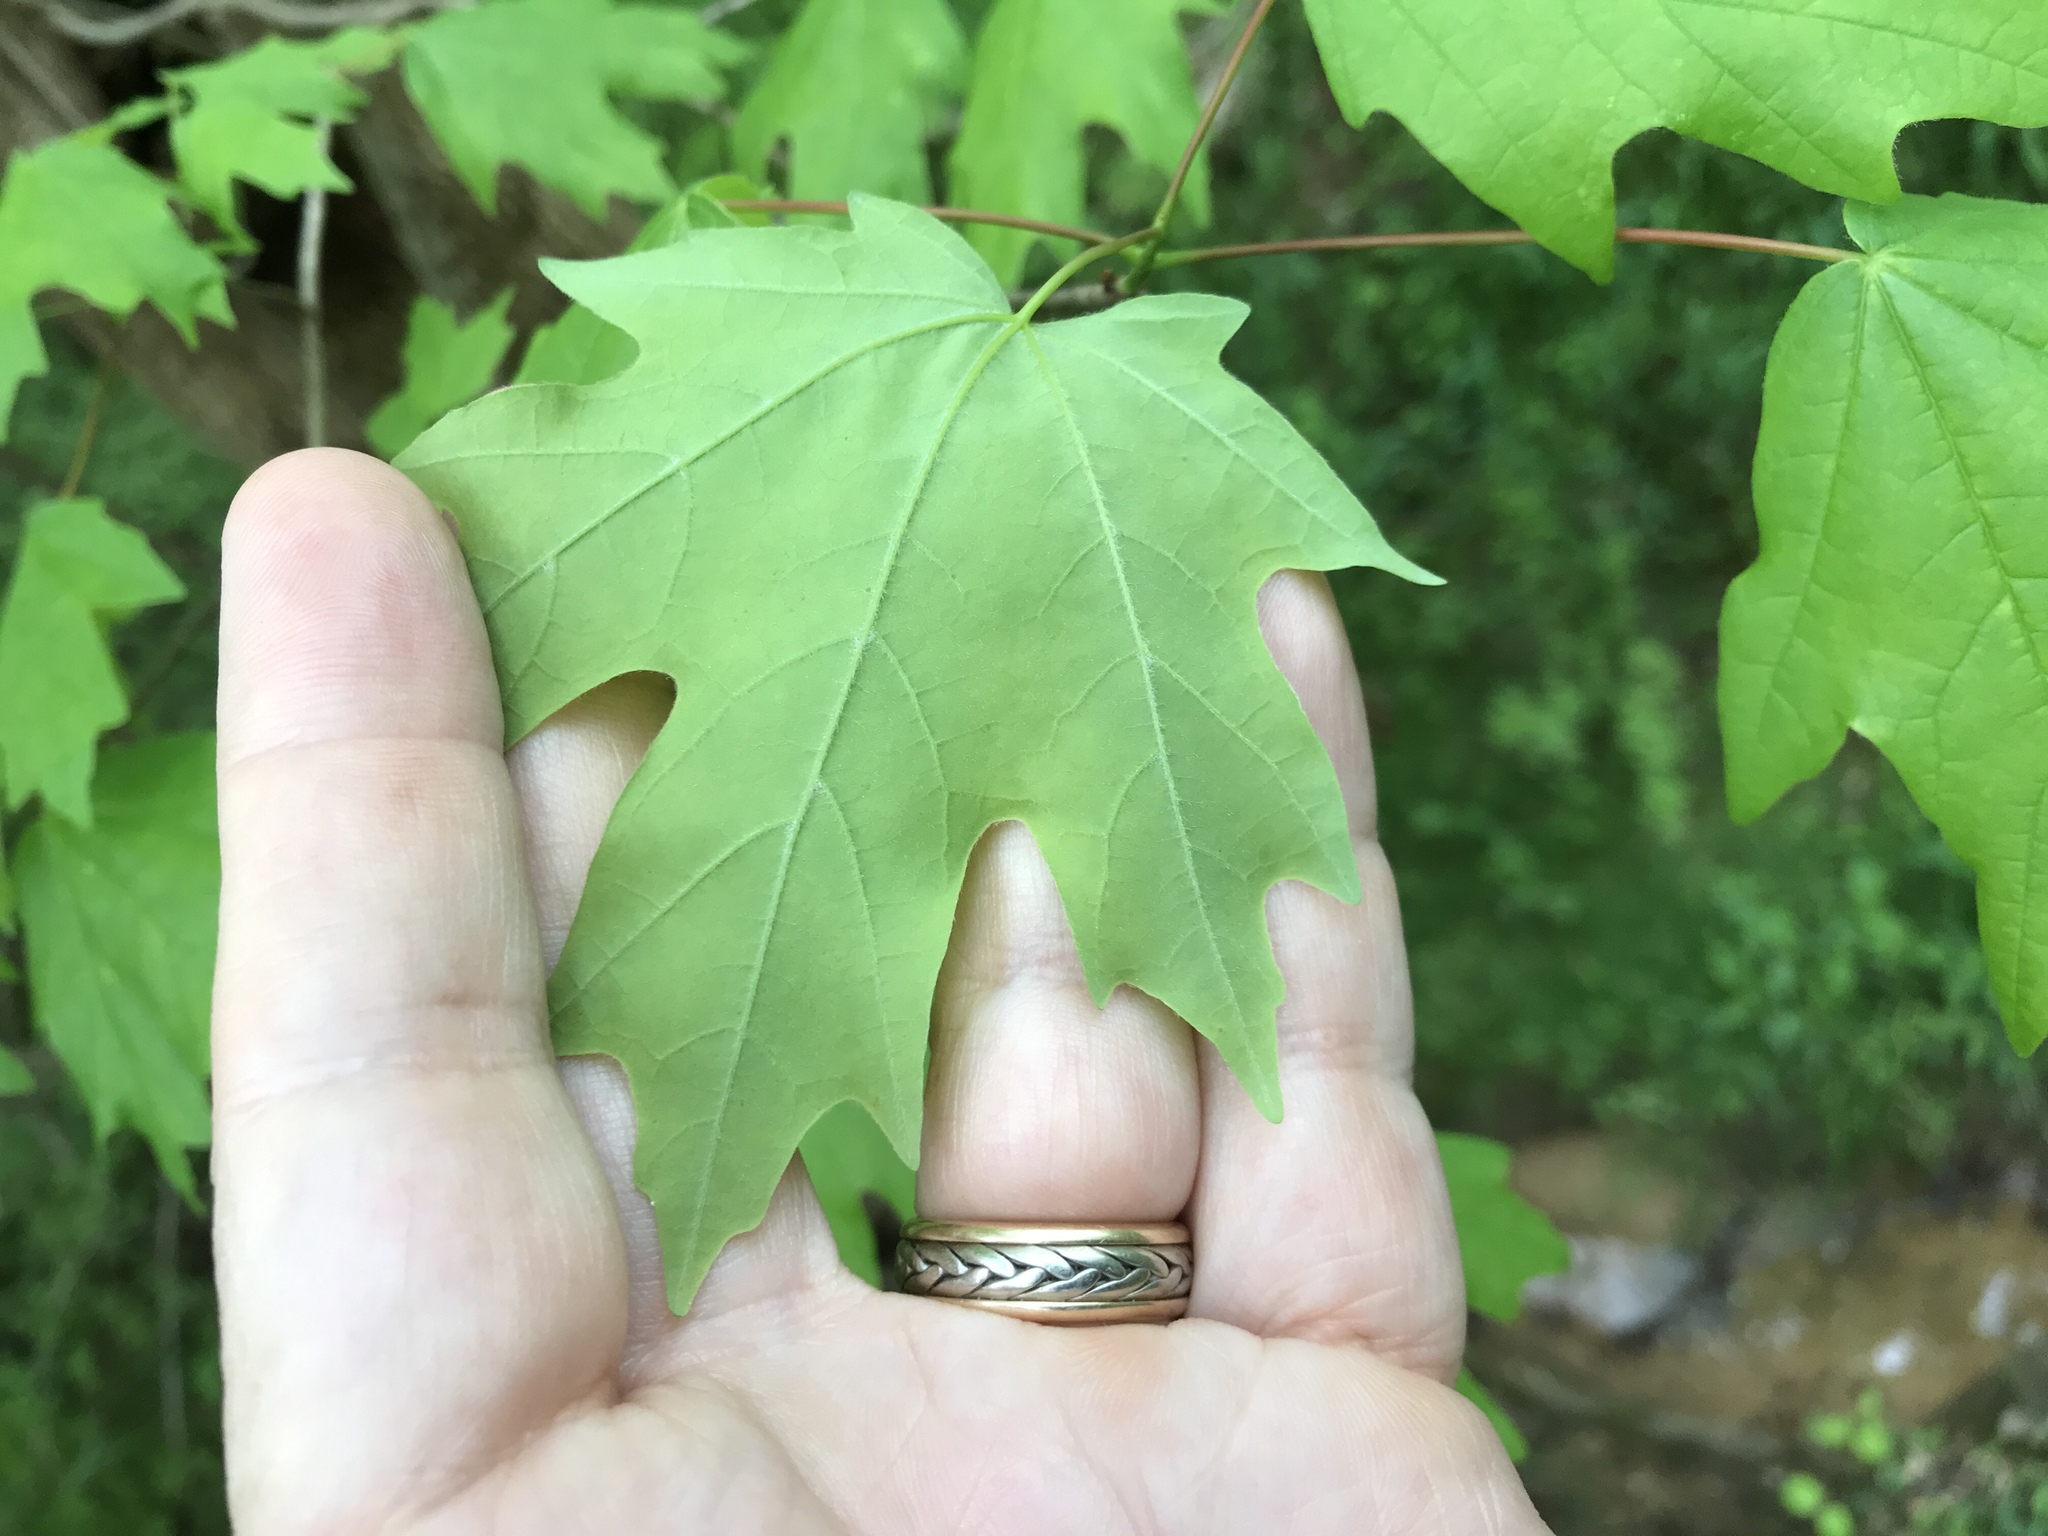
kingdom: Plantae
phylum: Tracheophyta
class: Magnoliopsida
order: Sapindales
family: Sapindaceae
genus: Acer
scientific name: Acer floridanum
